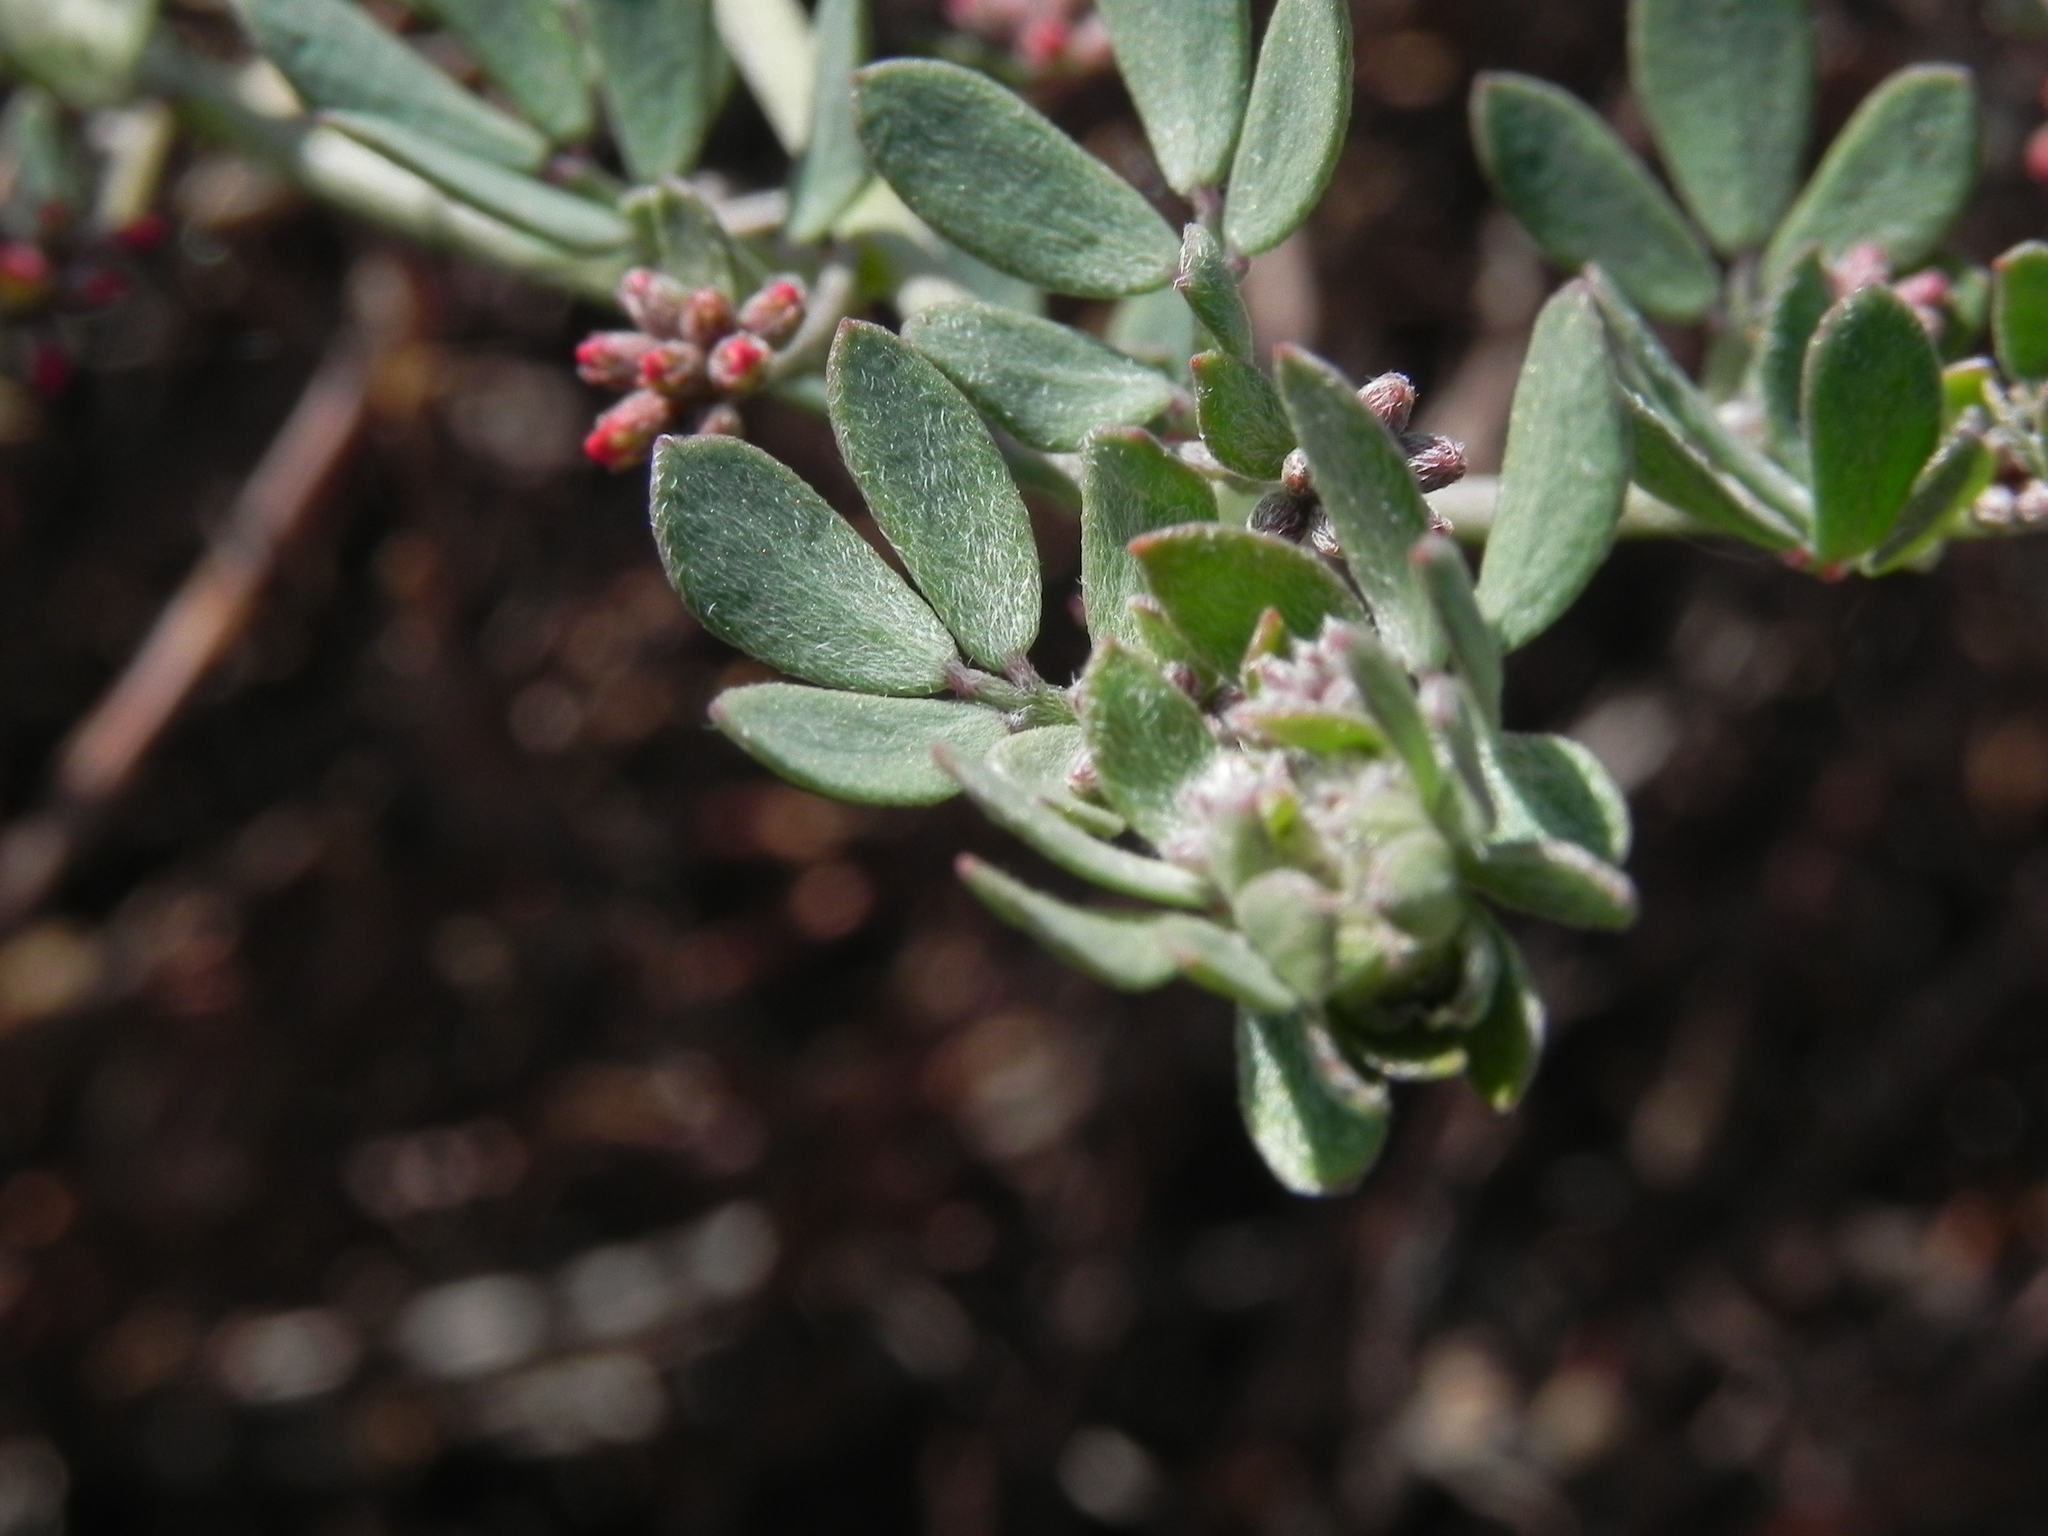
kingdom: Plantae
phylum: Tracheophyta
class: Magnoliopsida
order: Fabales
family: Fabaceae
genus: Acmispon
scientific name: Acmispon prostratus
